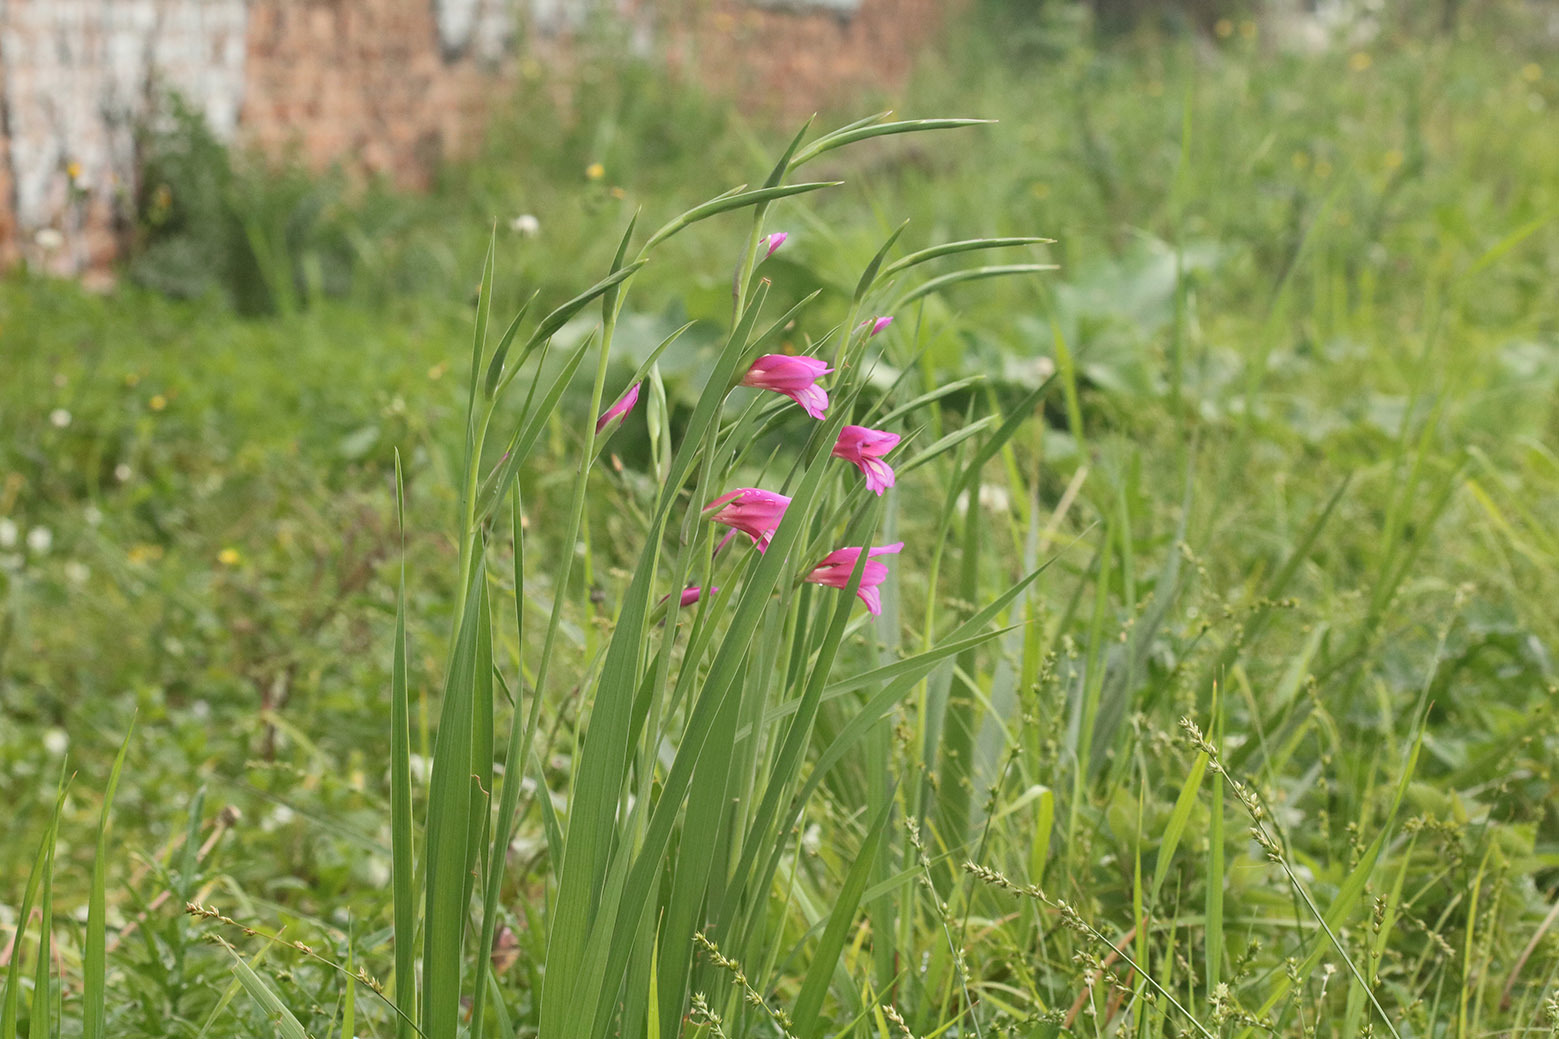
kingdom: Plantae
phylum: Tracheophyta
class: Liliopsida
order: Asparagales
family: Iridaceae
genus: Gladiolus
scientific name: Gladiolus communis
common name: Eastern gladiolus
